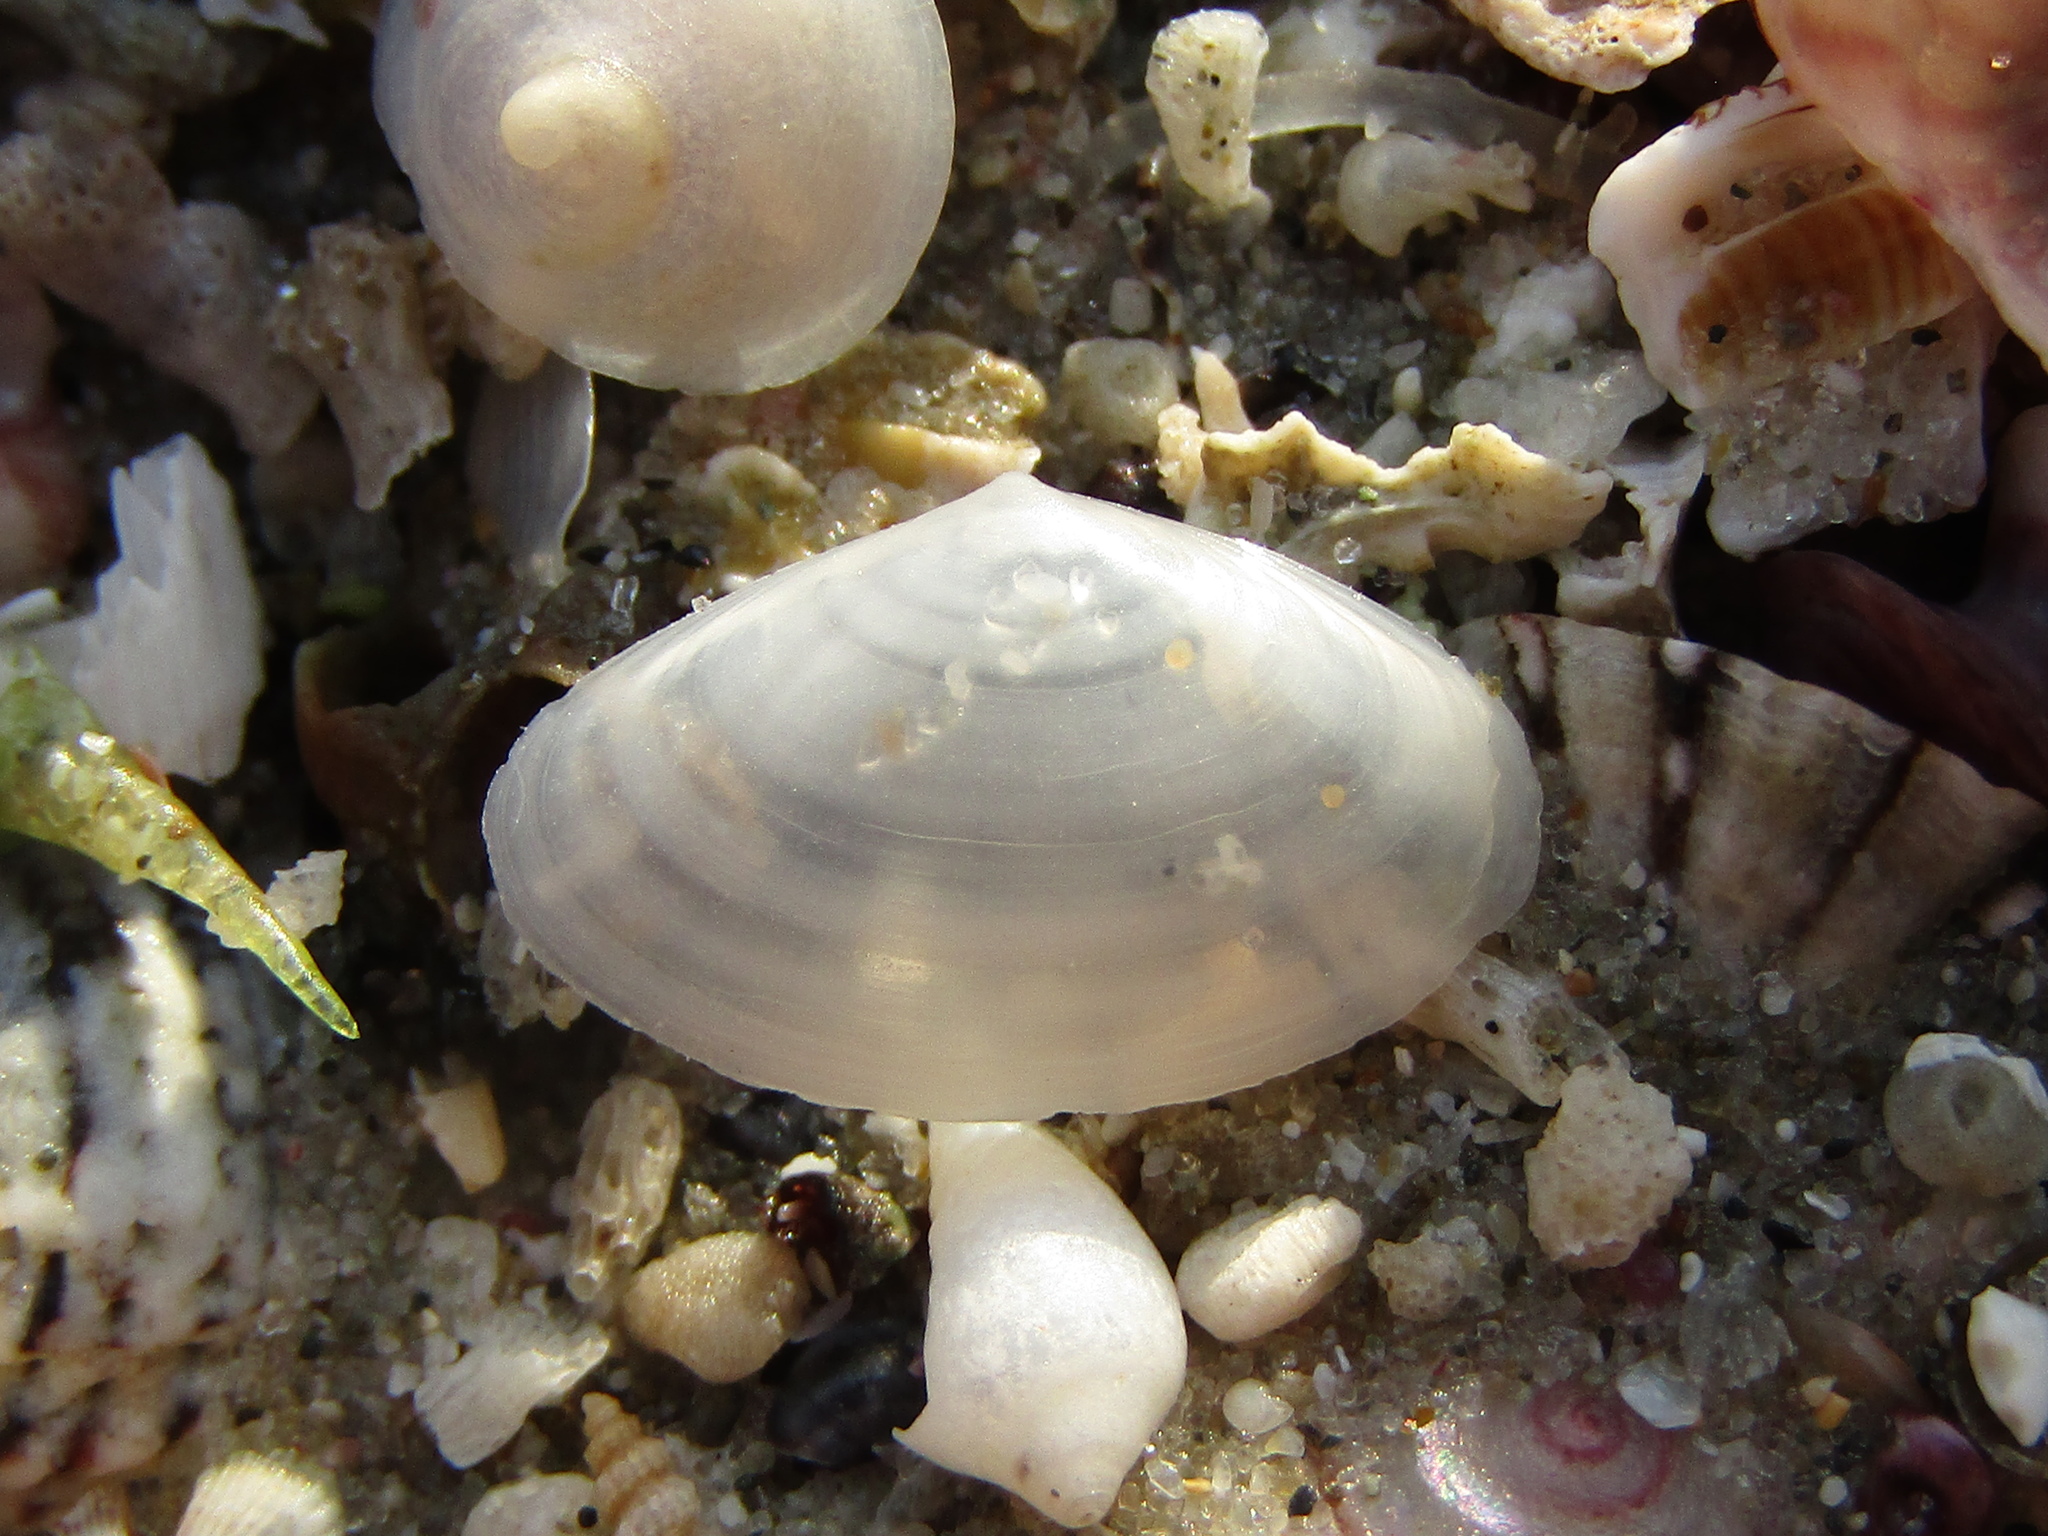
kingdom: Animalia
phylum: Mollusca
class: Bivalvia
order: Venerida
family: Mactridae
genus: Scalpomactra
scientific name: Scalpomactra scalpellum
